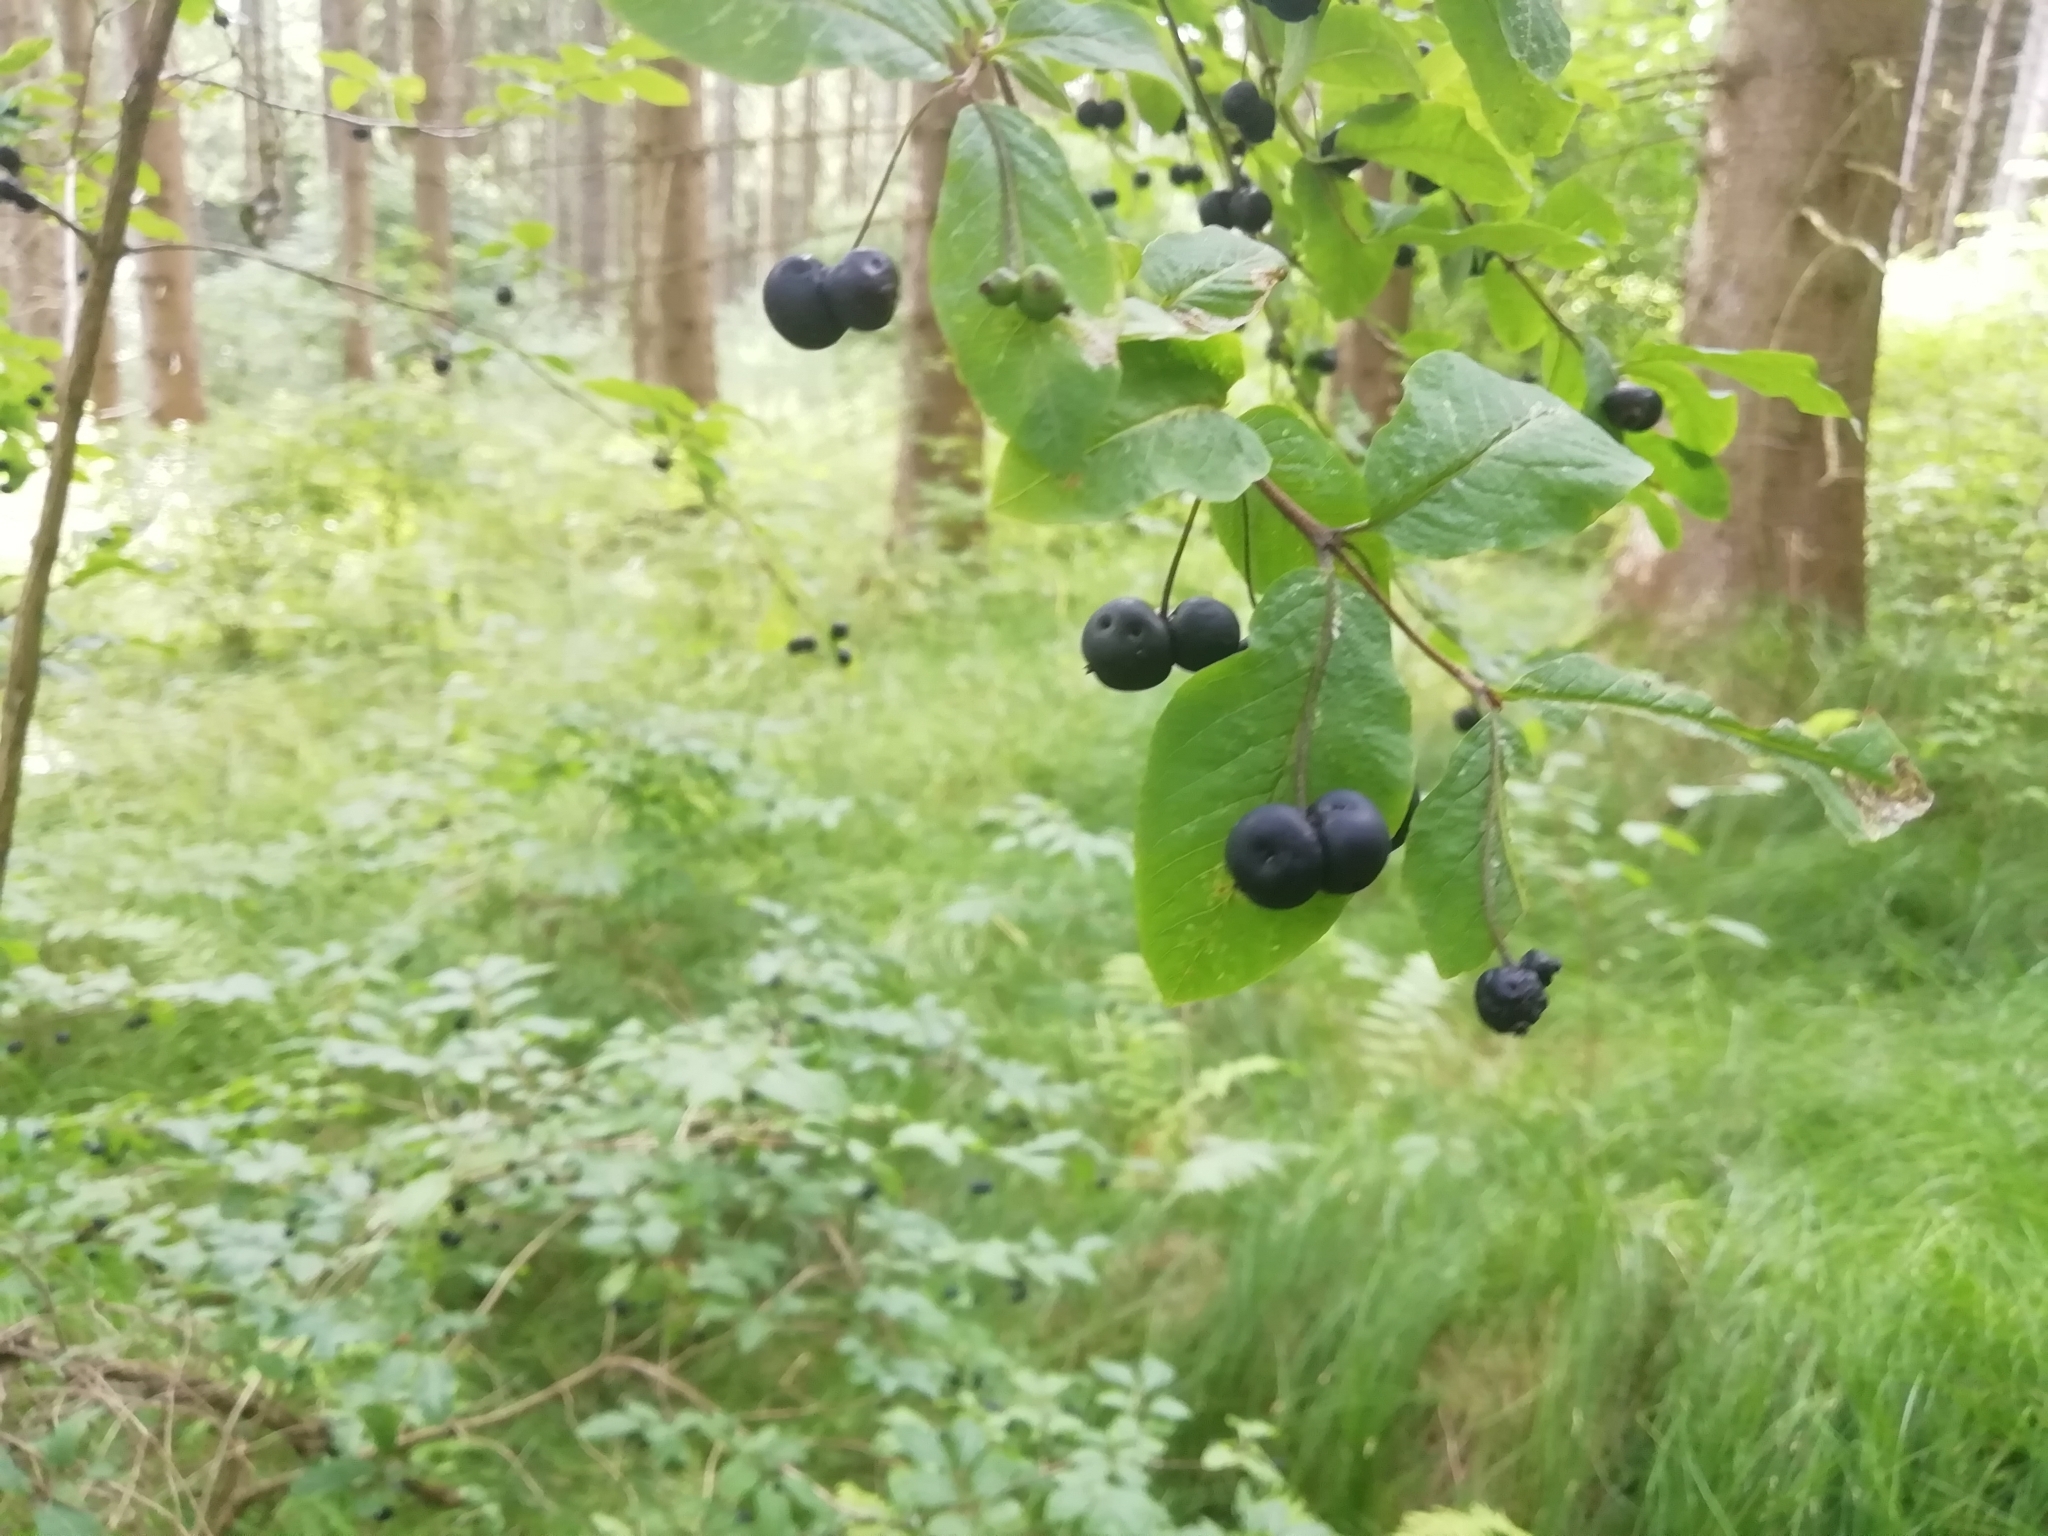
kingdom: Plantae
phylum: Tracheophyta
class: Magnoliopsida
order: Dipsacales
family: Caprifoliaceae
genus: Lonicera
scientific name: Lonicera nigra
